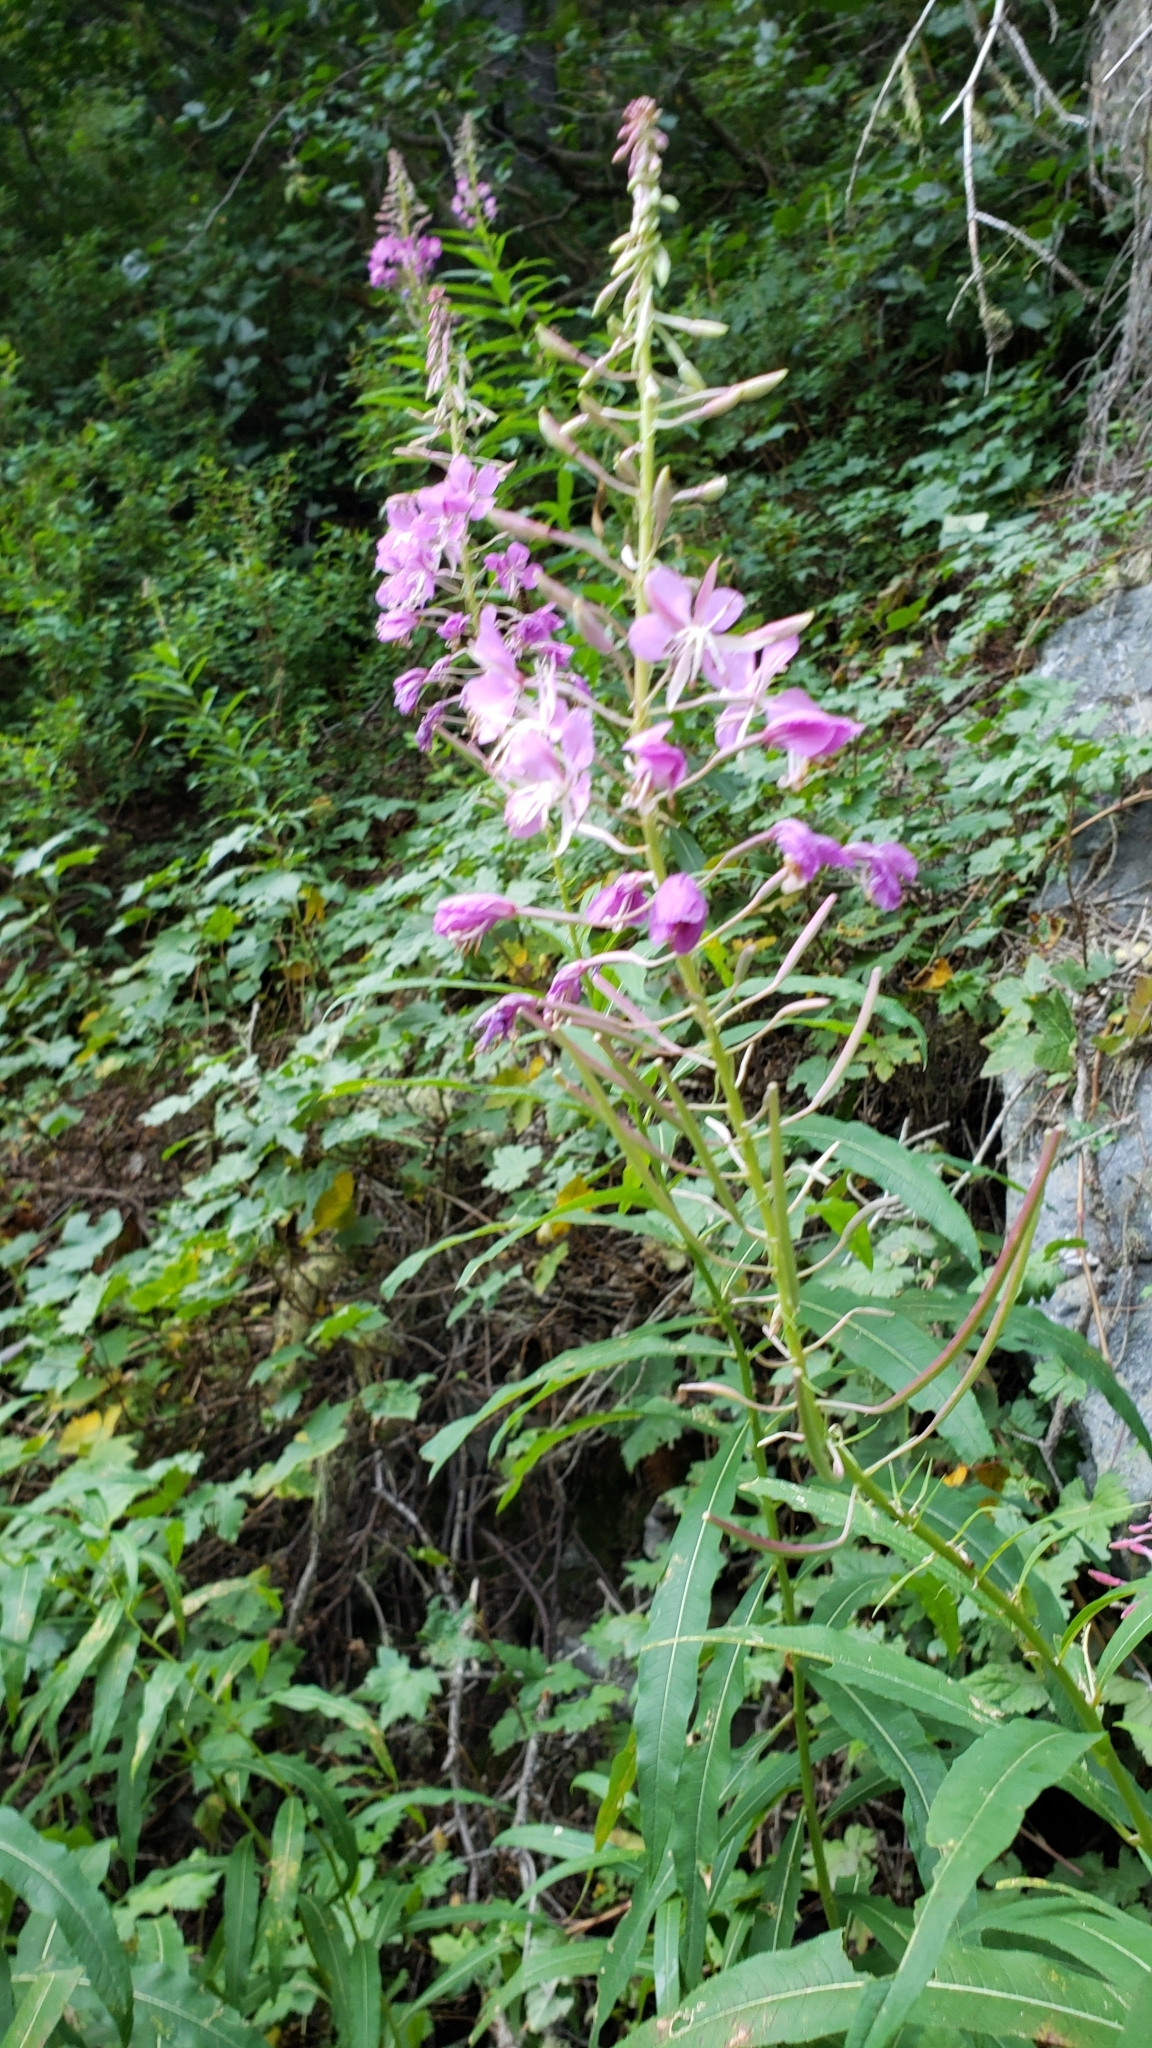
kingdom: Plantae
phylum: Tracheophyta
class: Magnoliopsida
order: Myrtales
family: Onagraceae
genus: Chamaenerion
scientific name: Chamaenerion angustifolium
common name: Fireweed
